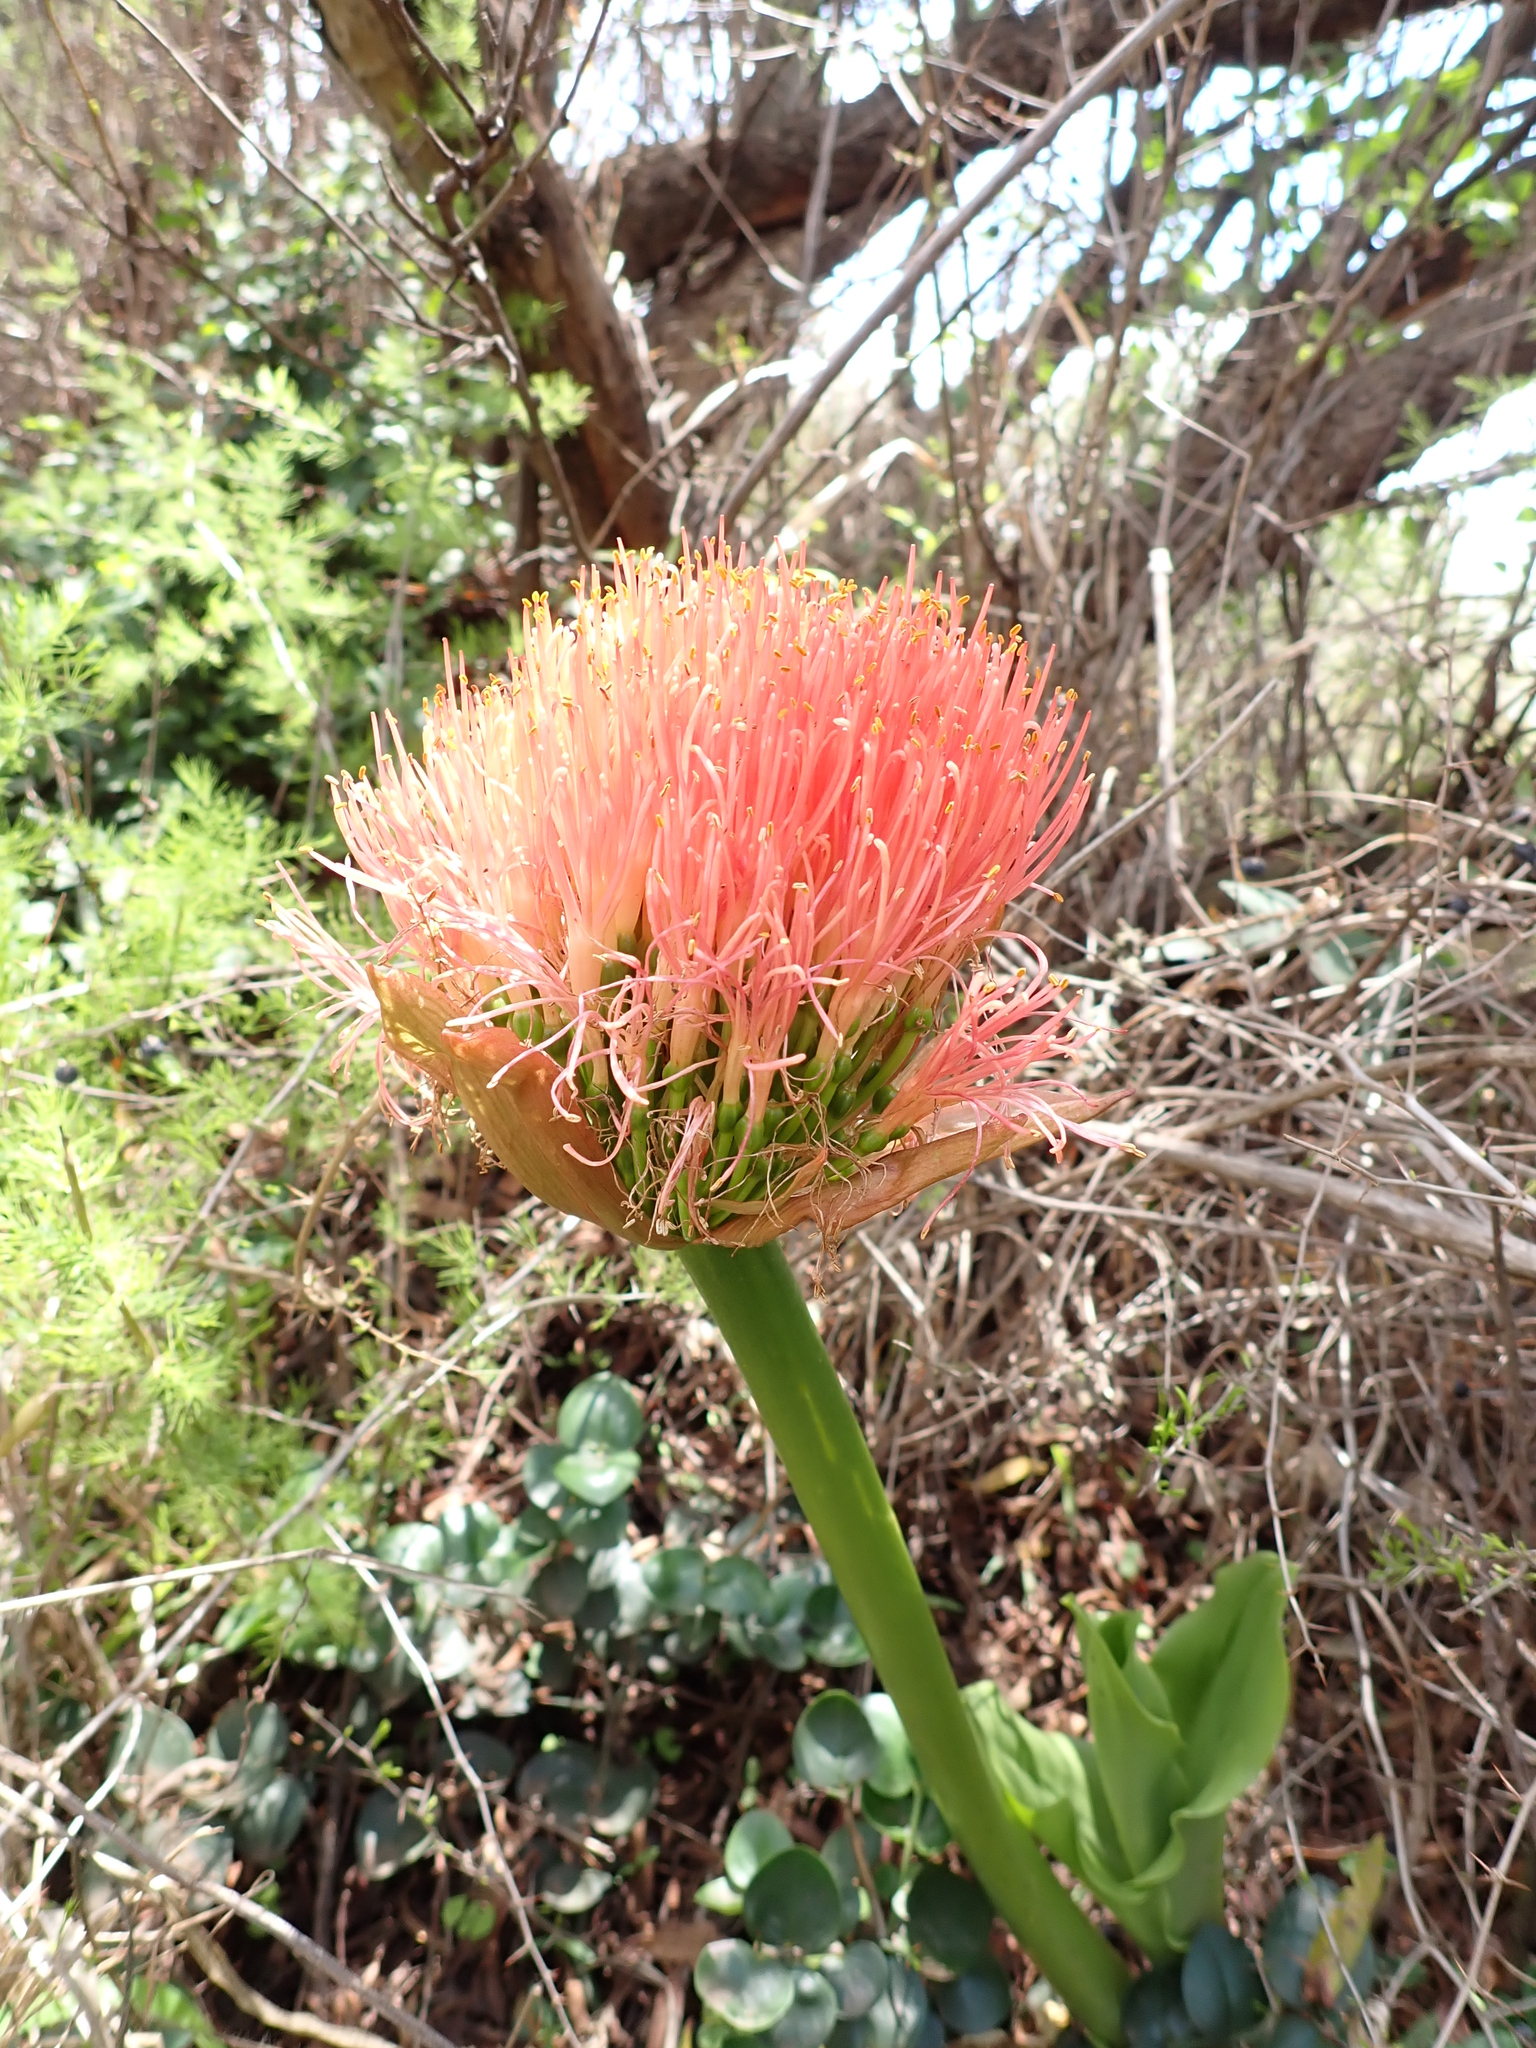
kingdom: Plantae
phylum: Tracheophyta
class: Liliopsida
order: Asparagales
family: Amaryllidaceae
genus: Scadoxus
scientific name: Scadoxus puniceus
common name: Royal-paintbrush
